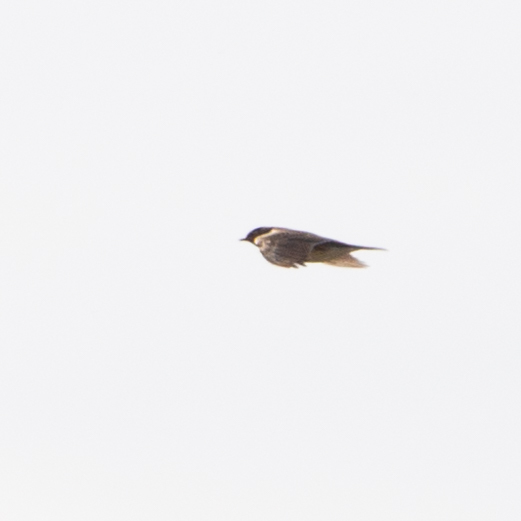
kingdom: Animalia
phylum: Chordata
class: Aves
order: Passeriformes
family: Alaudidae
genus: Alauda
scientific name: Alauda arvensis
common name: Eurasian skylark
